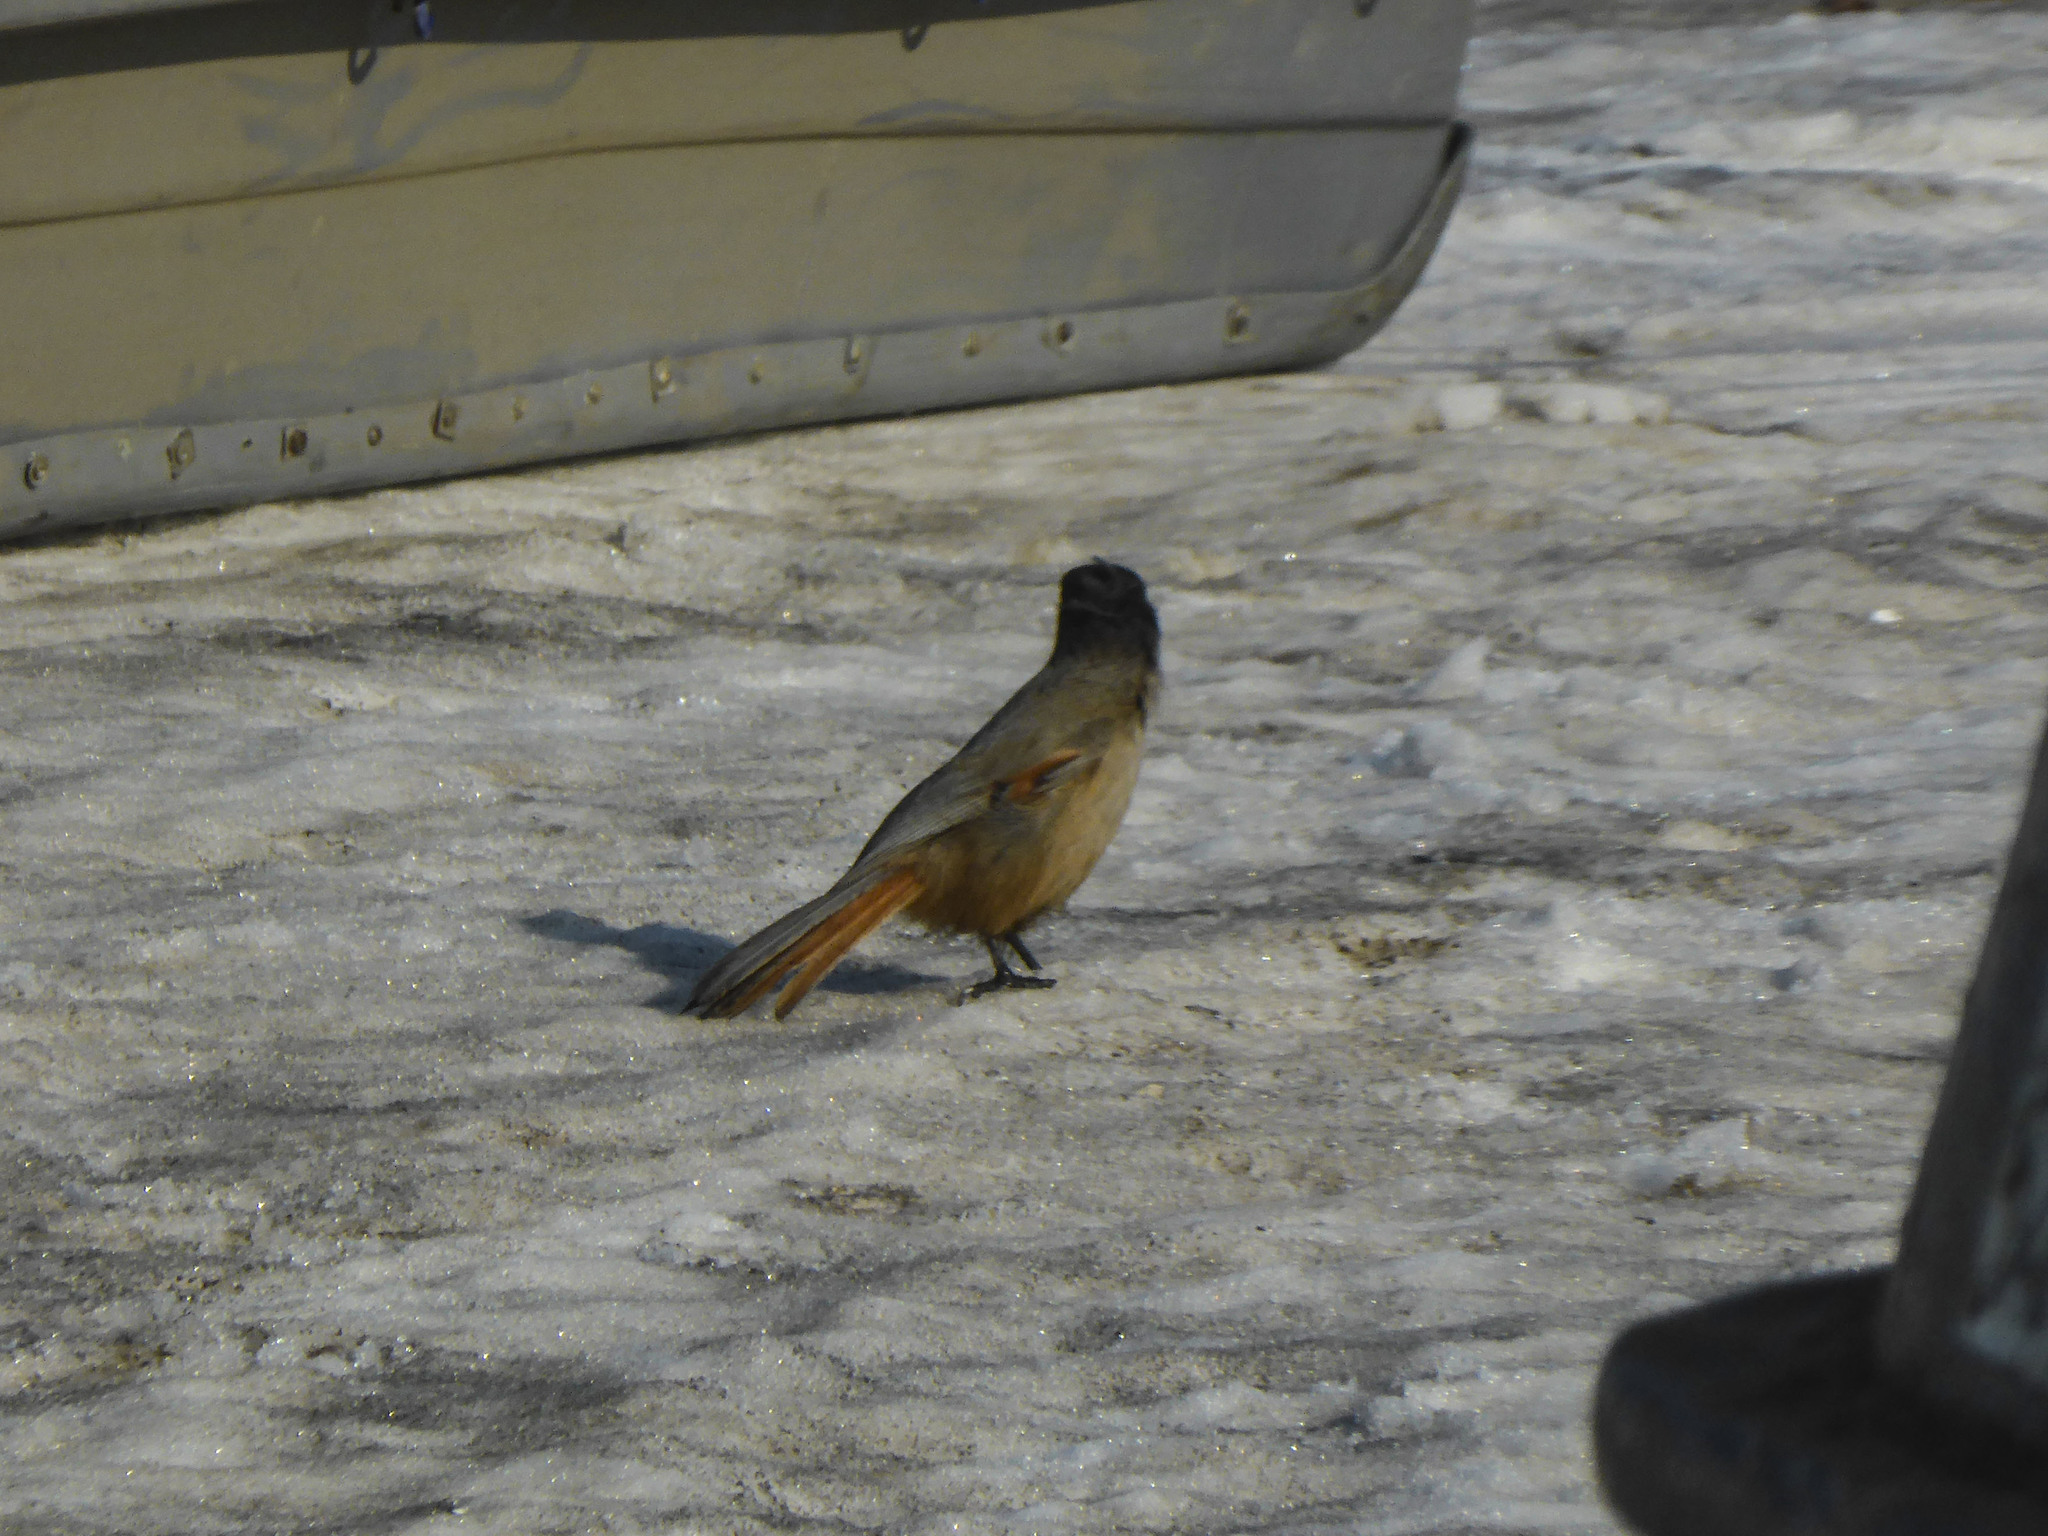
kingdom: Animalia
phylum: Chordata
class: Aves
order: Passeriformes
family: Corvidae
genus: Perisoreus
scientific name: Perisoreus infaustus
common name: Siberian jay
